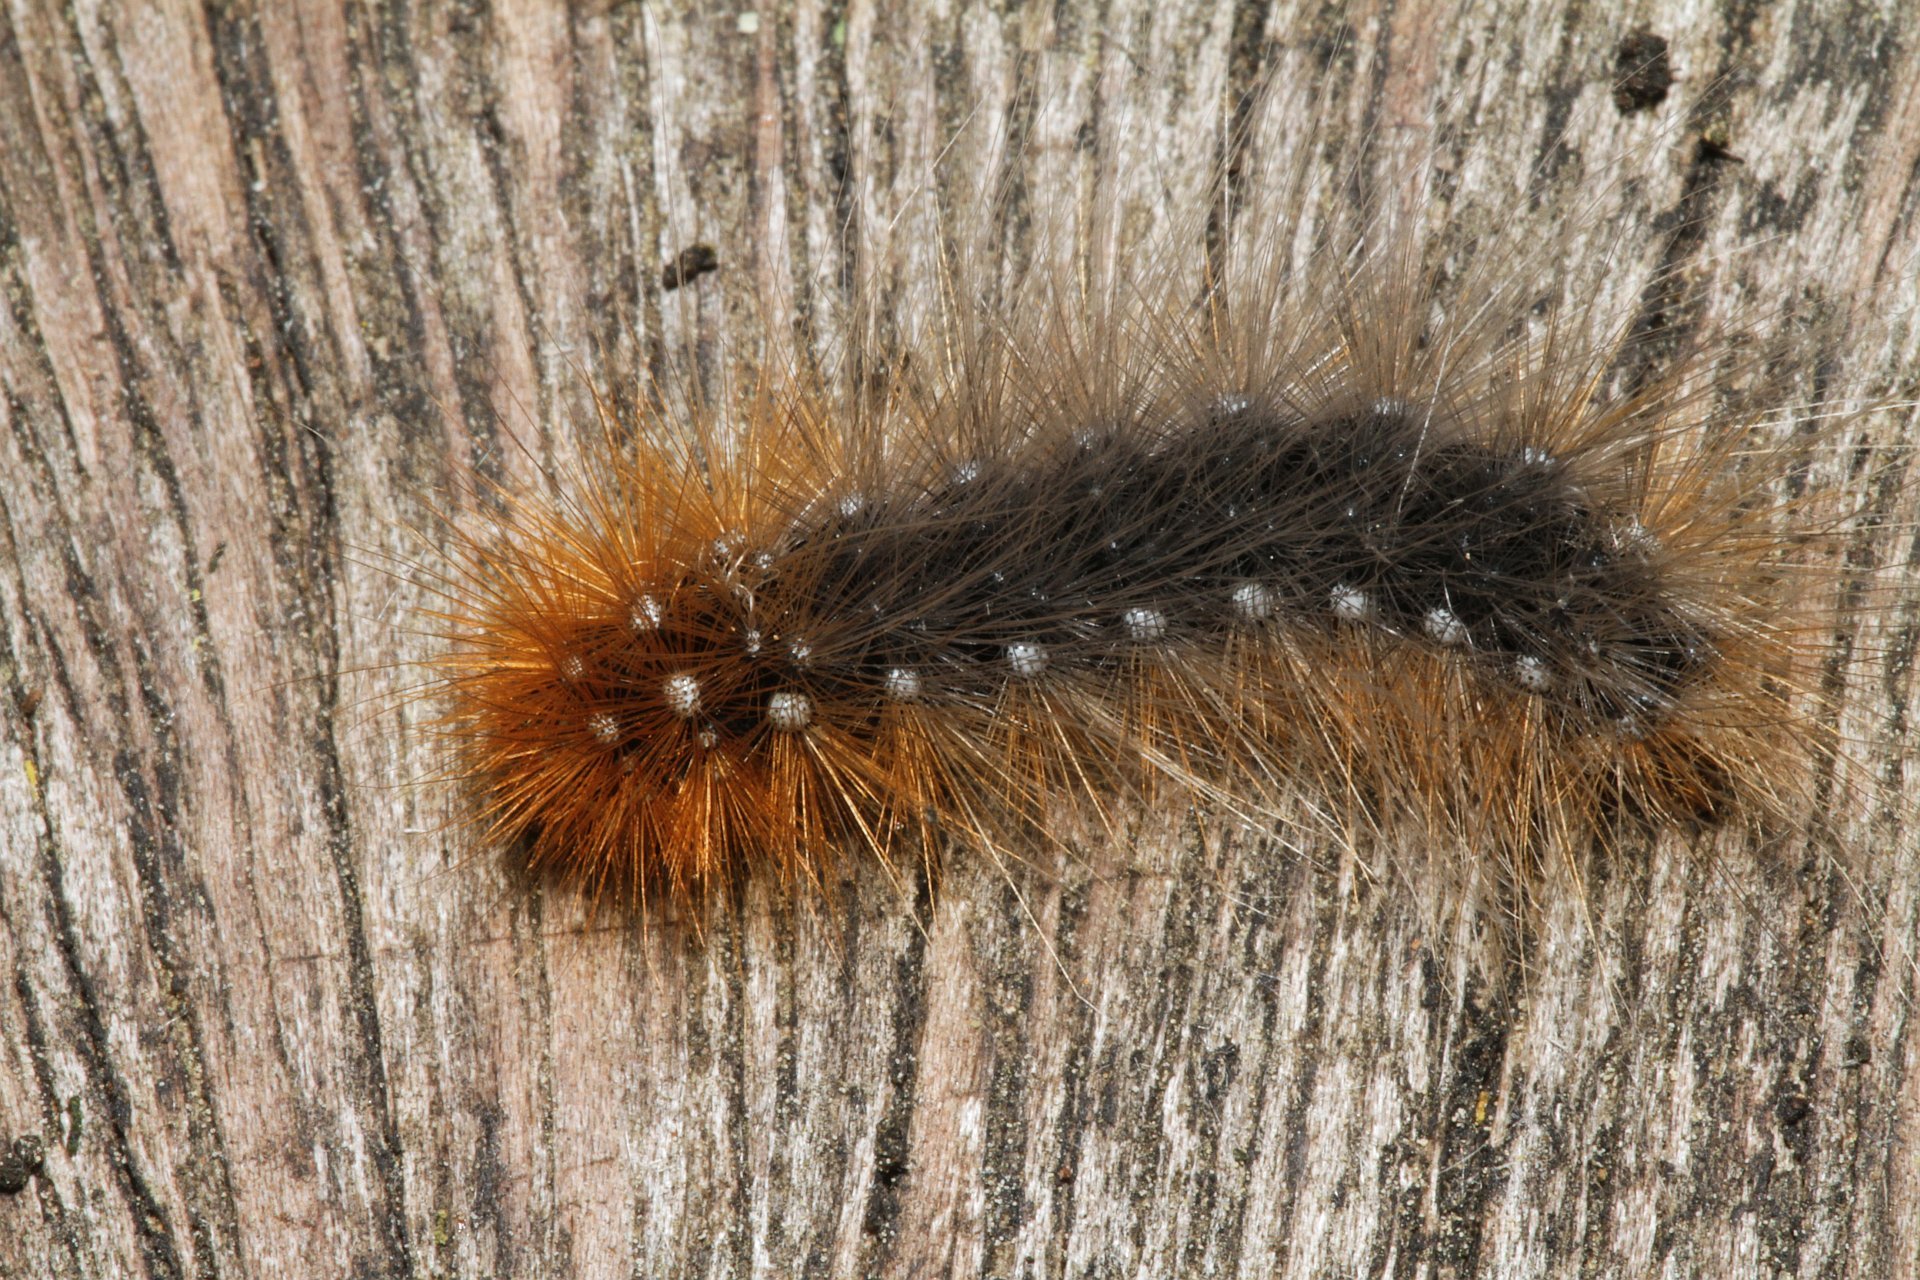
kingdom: Animalia
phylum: Arthropoda
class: Insecta
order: Lepidoptera
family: Erebidae
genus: Arctia
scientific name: Arctia caja
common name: Garden tiger
